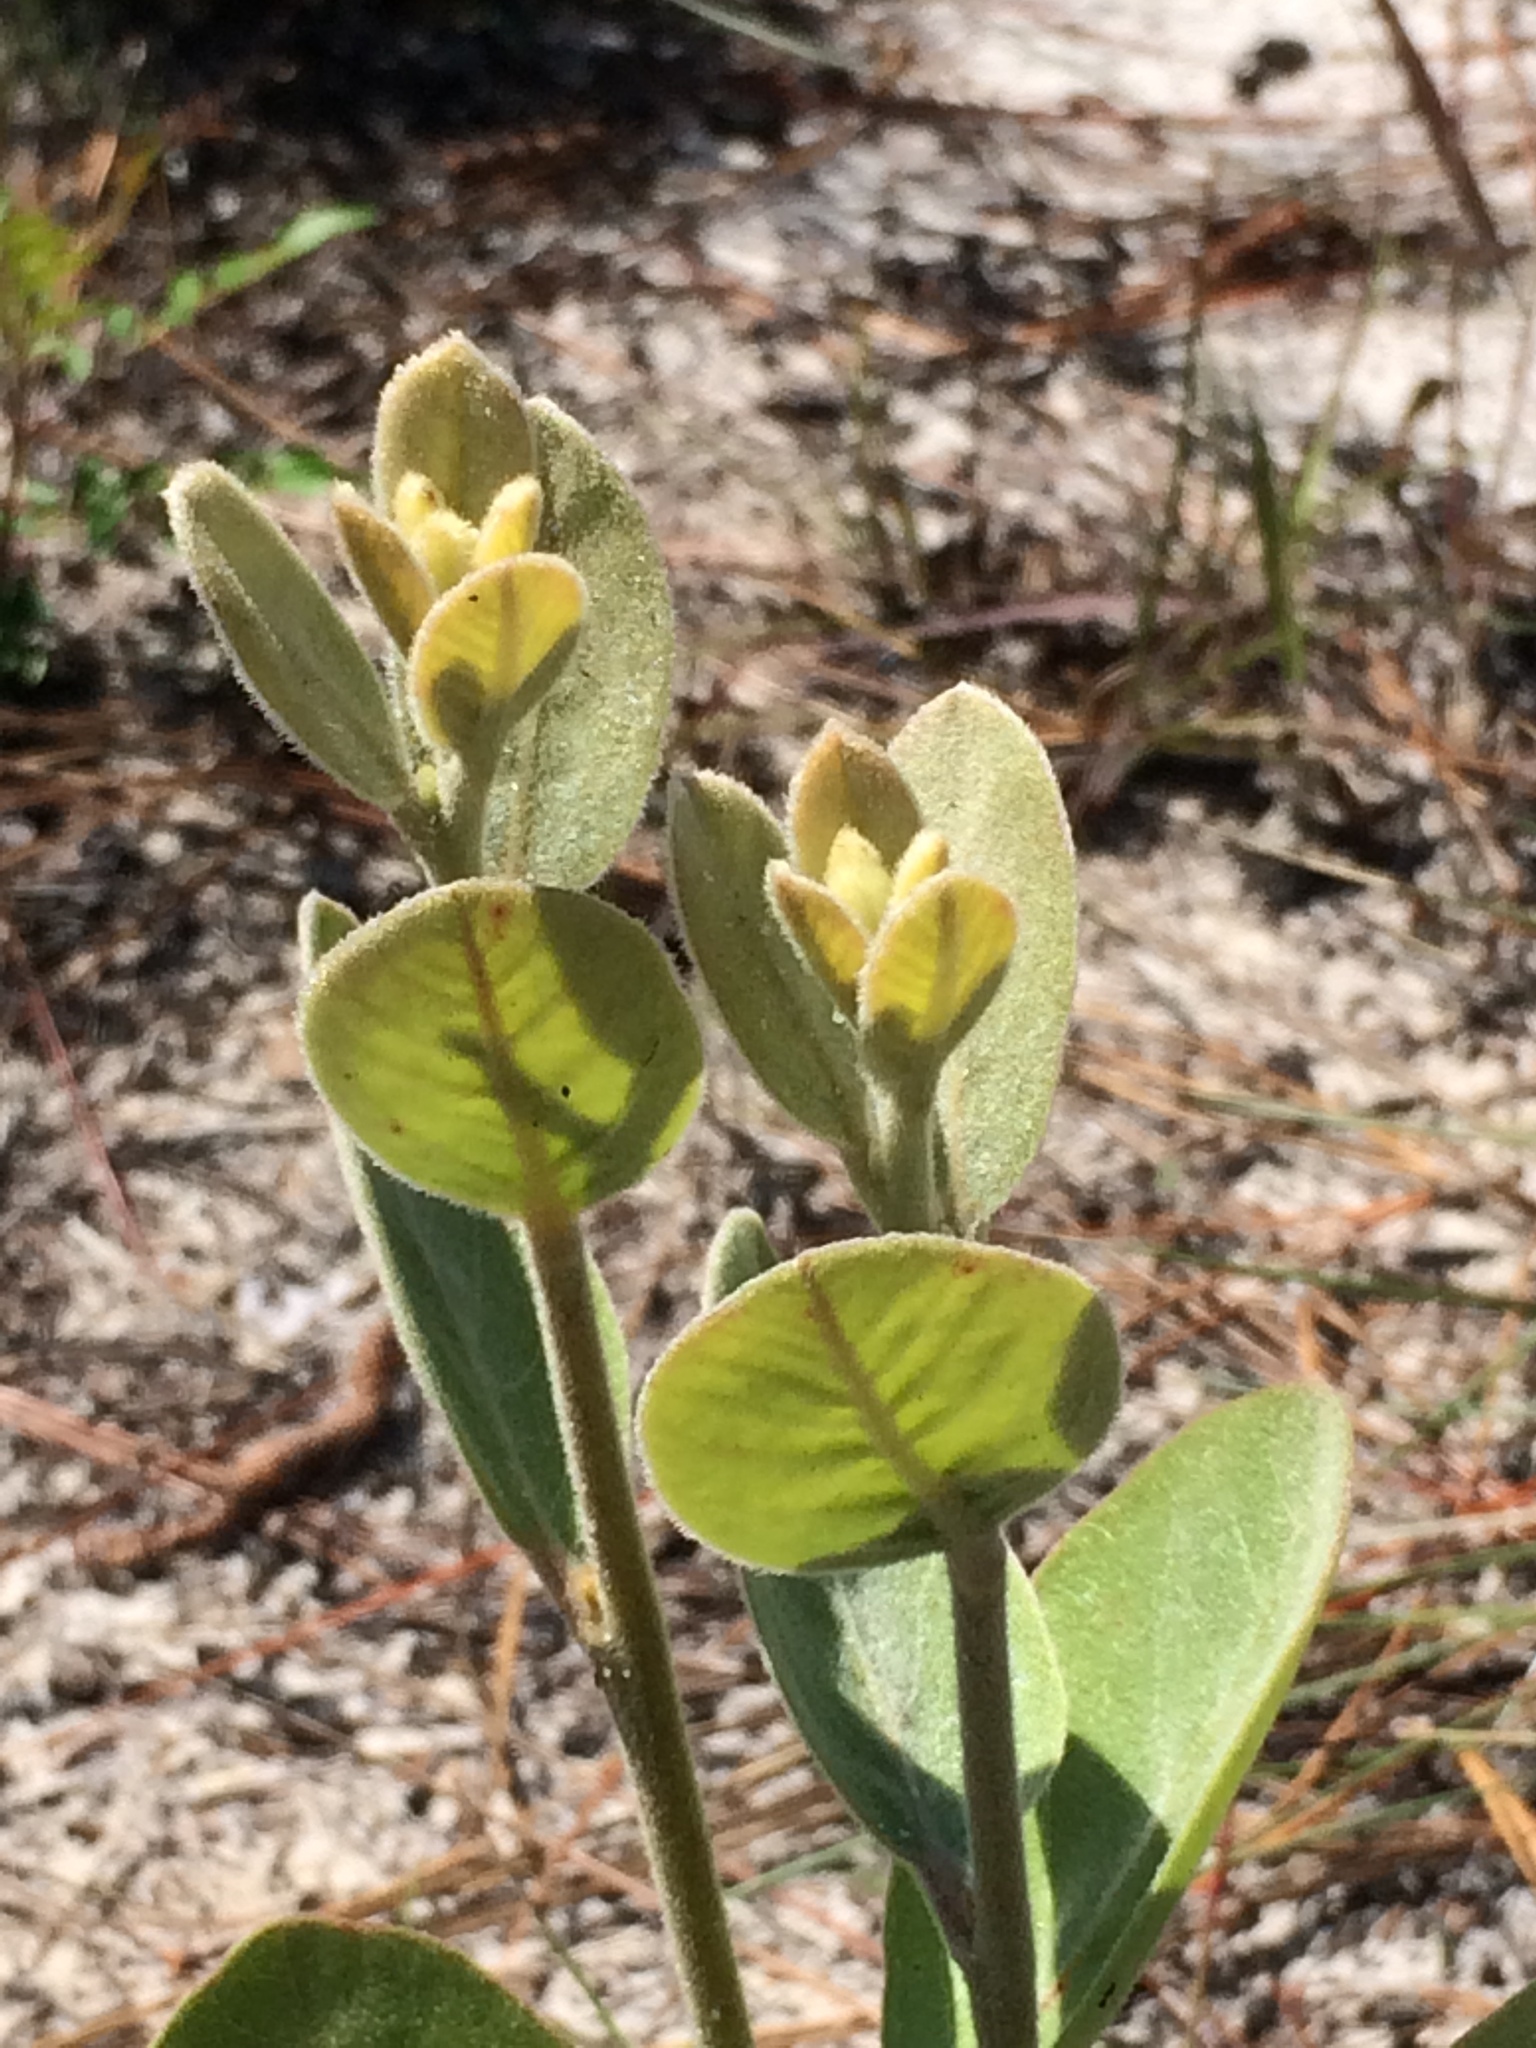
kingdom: Plantae
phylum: Tracheophyta
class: Magnoliopsida
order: Magnoliales
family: Annonaceae
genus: Asimina
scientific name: Asimina speciosa
